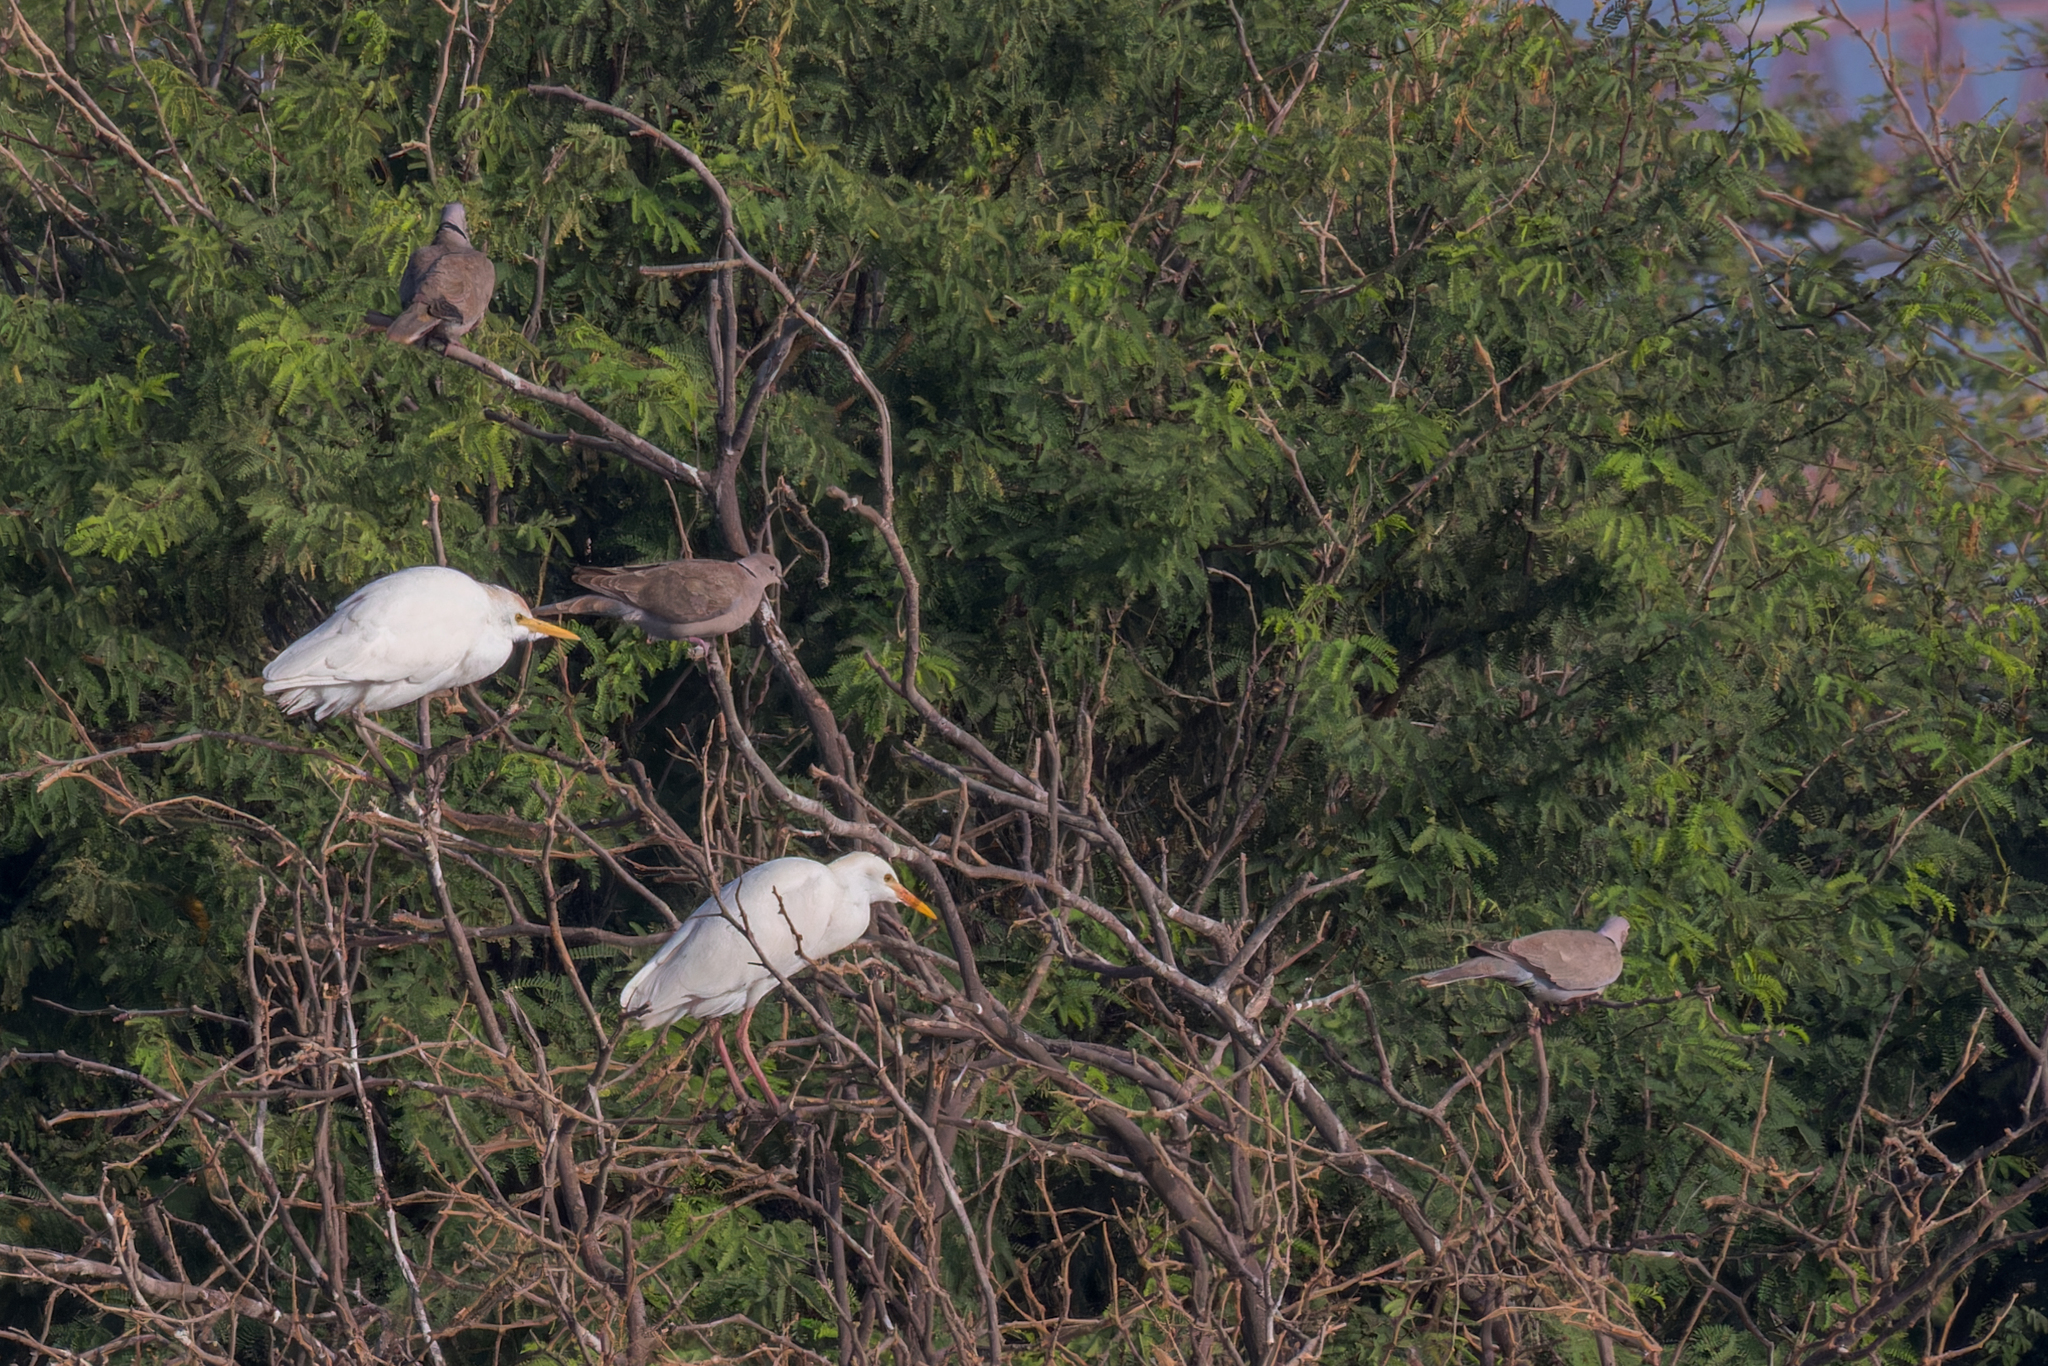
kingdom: Animalia
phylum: Chordata
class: Aves
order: Pelecaniformes
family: Ardeidae
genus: Bubulcus
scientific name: Bubulcus ibis
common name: Cattle egret
